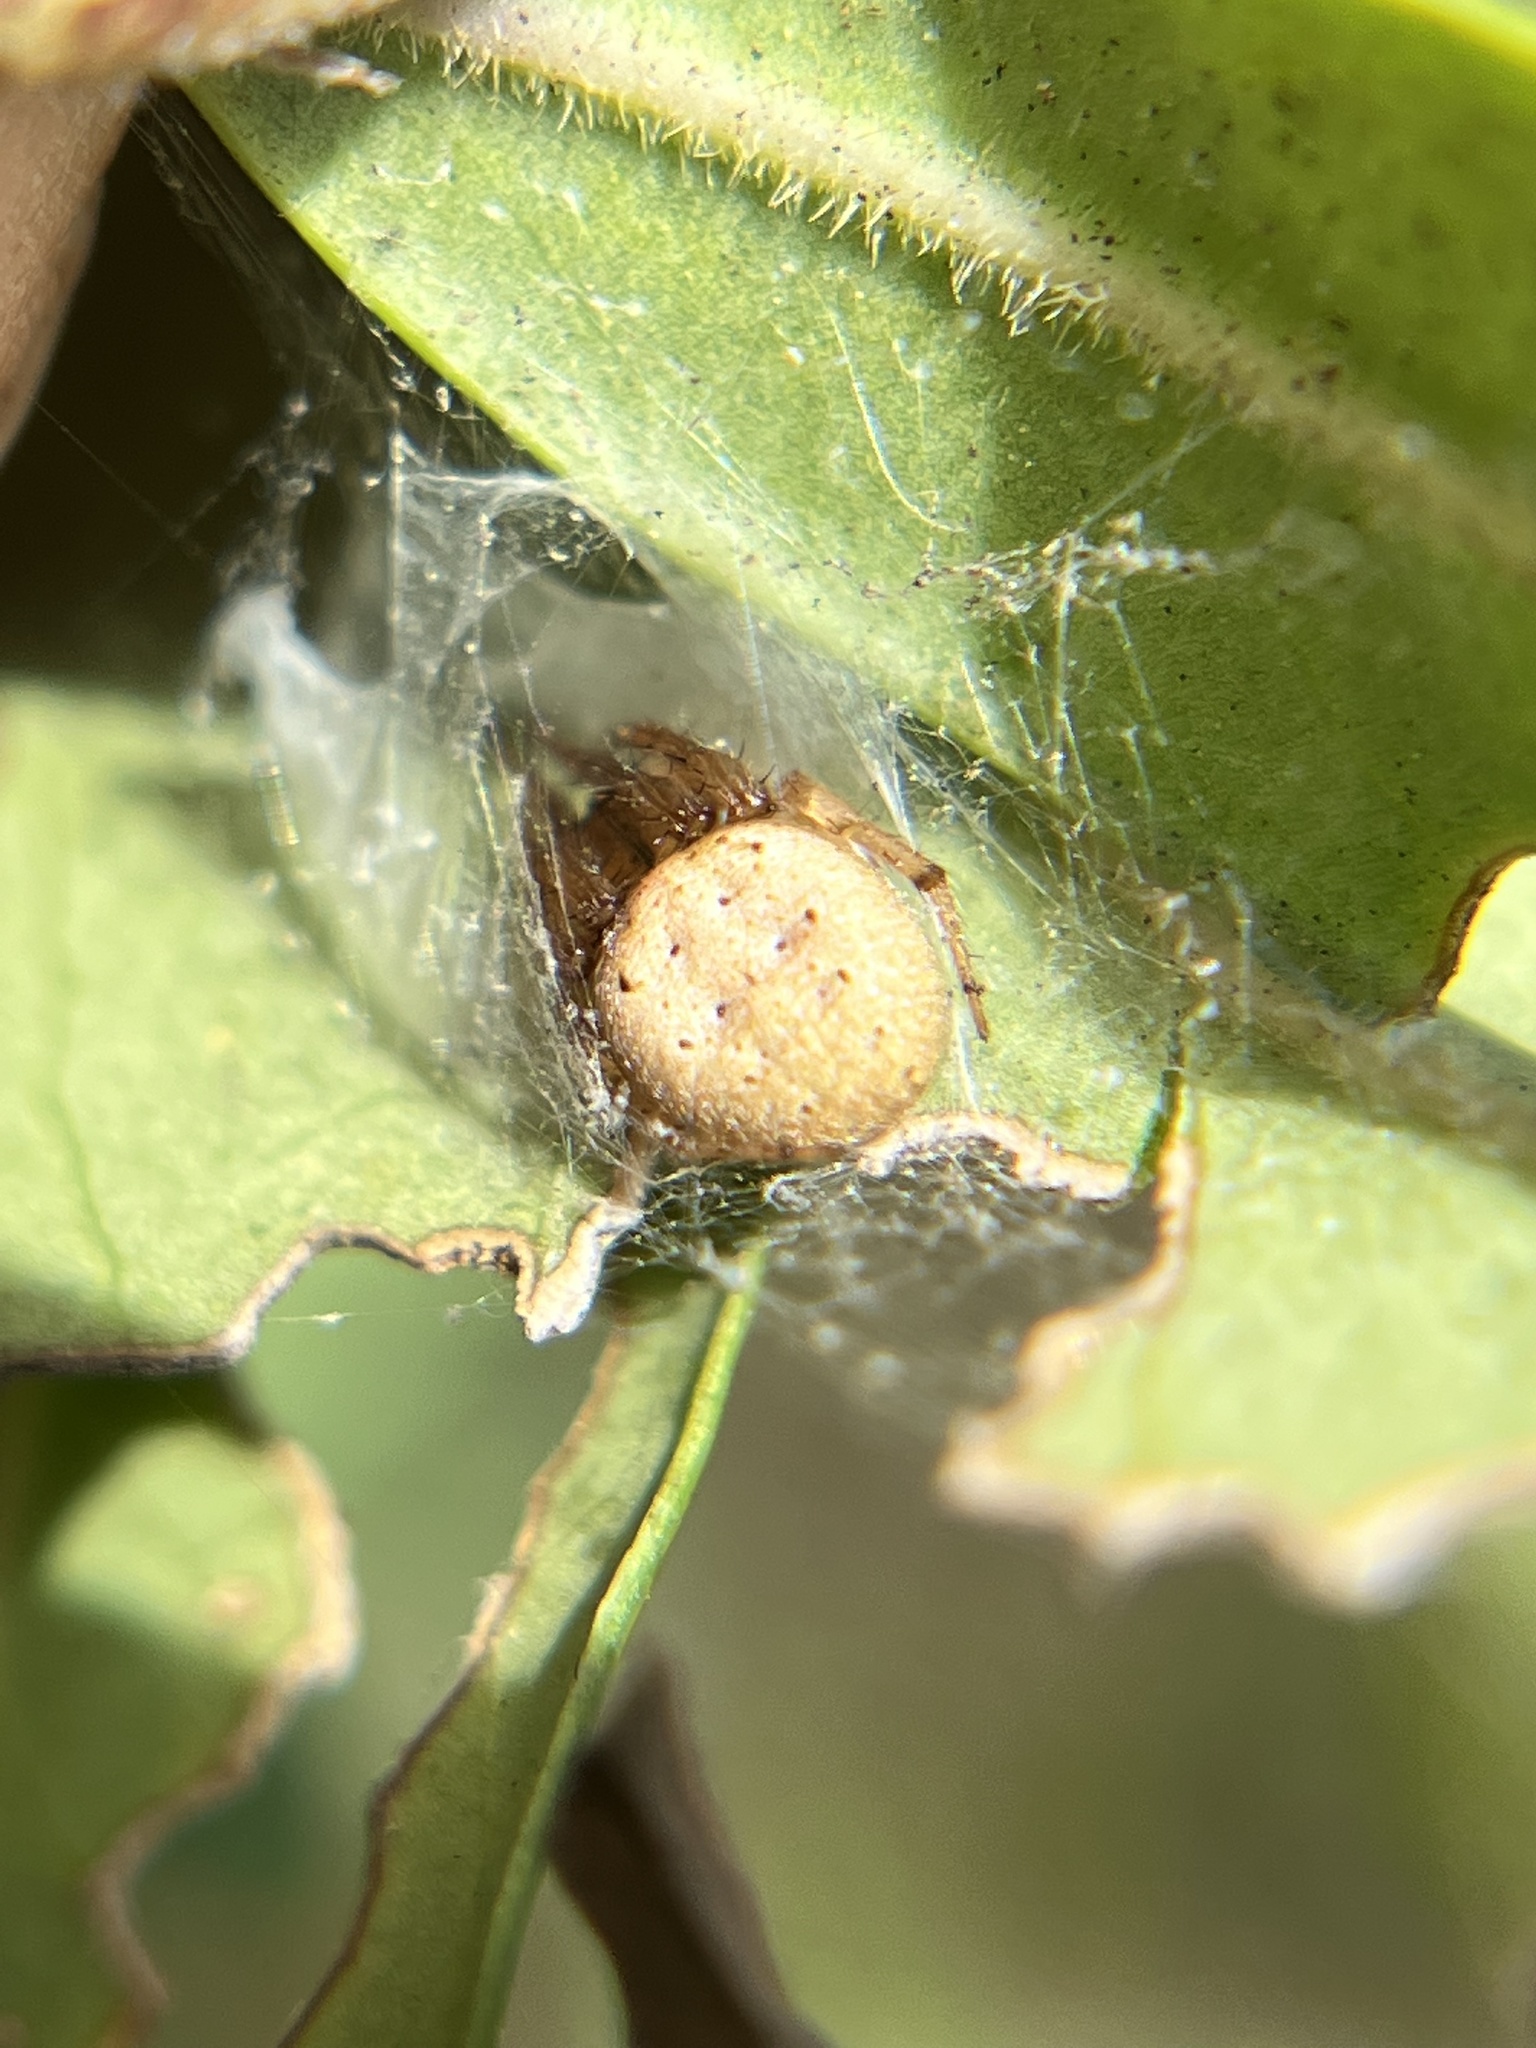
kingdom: Animalia
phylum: Arthropoda
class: Arachnida
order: Araneae
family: Araneidae
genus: Metazygia
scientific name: Metazygia zilloides
